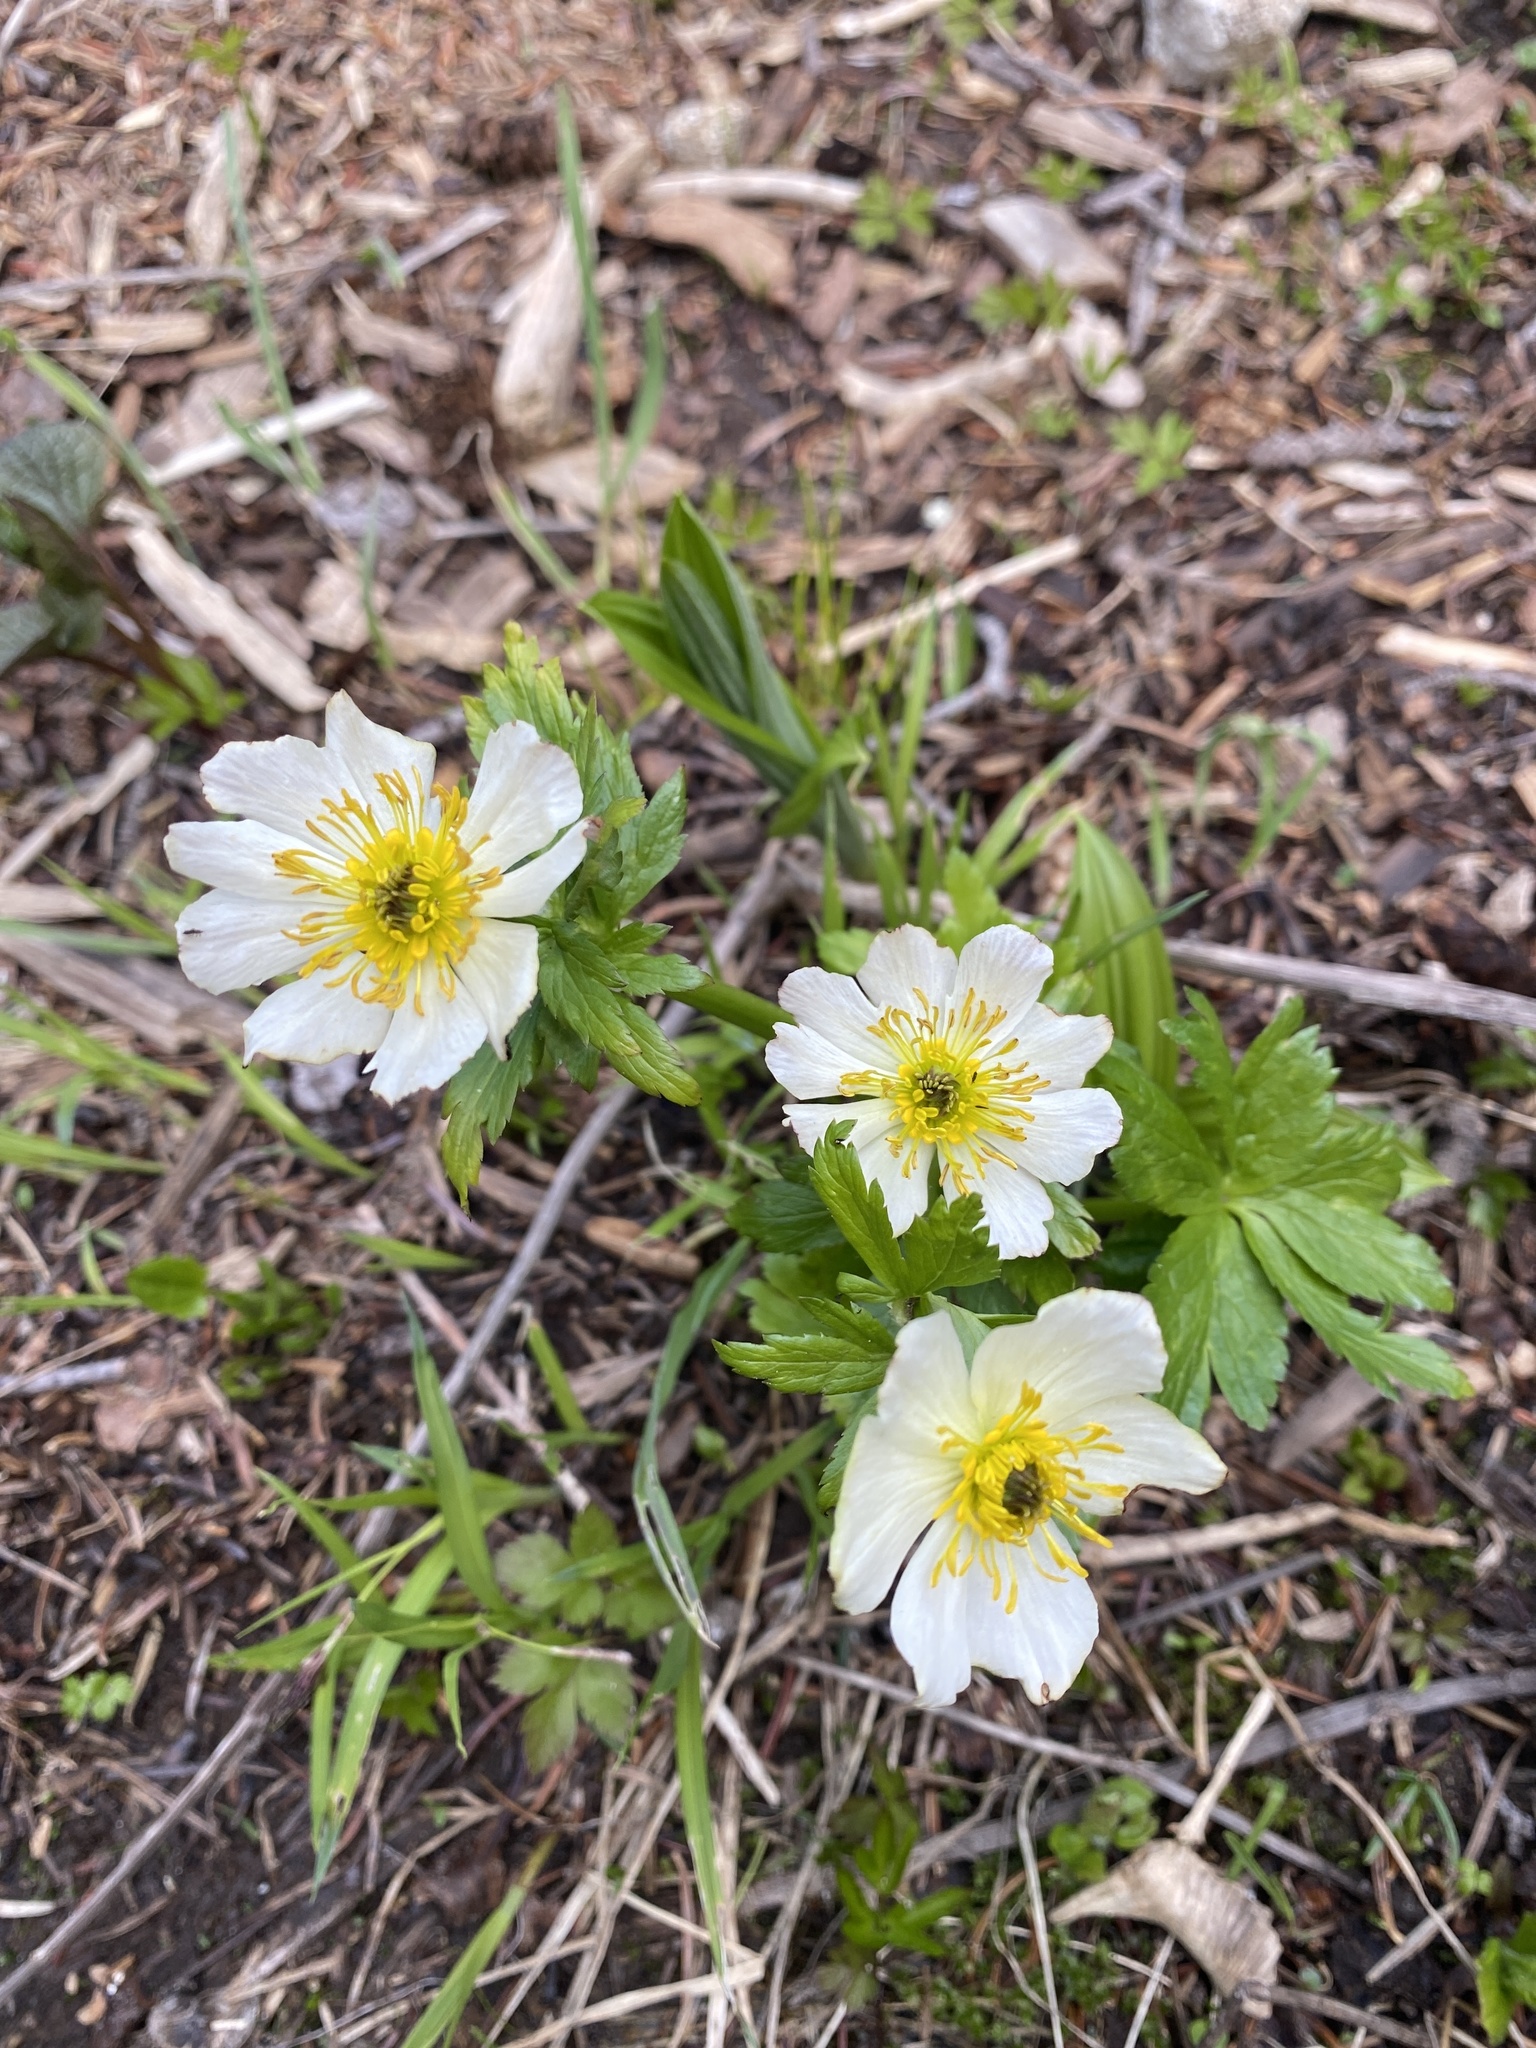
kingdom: Plantae
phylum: Tracheophyta
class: Magnoliopsida
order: Ranunculales
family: Ranunculaceae
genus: Trollius
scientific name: Trollius laxus
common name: American globeflower
